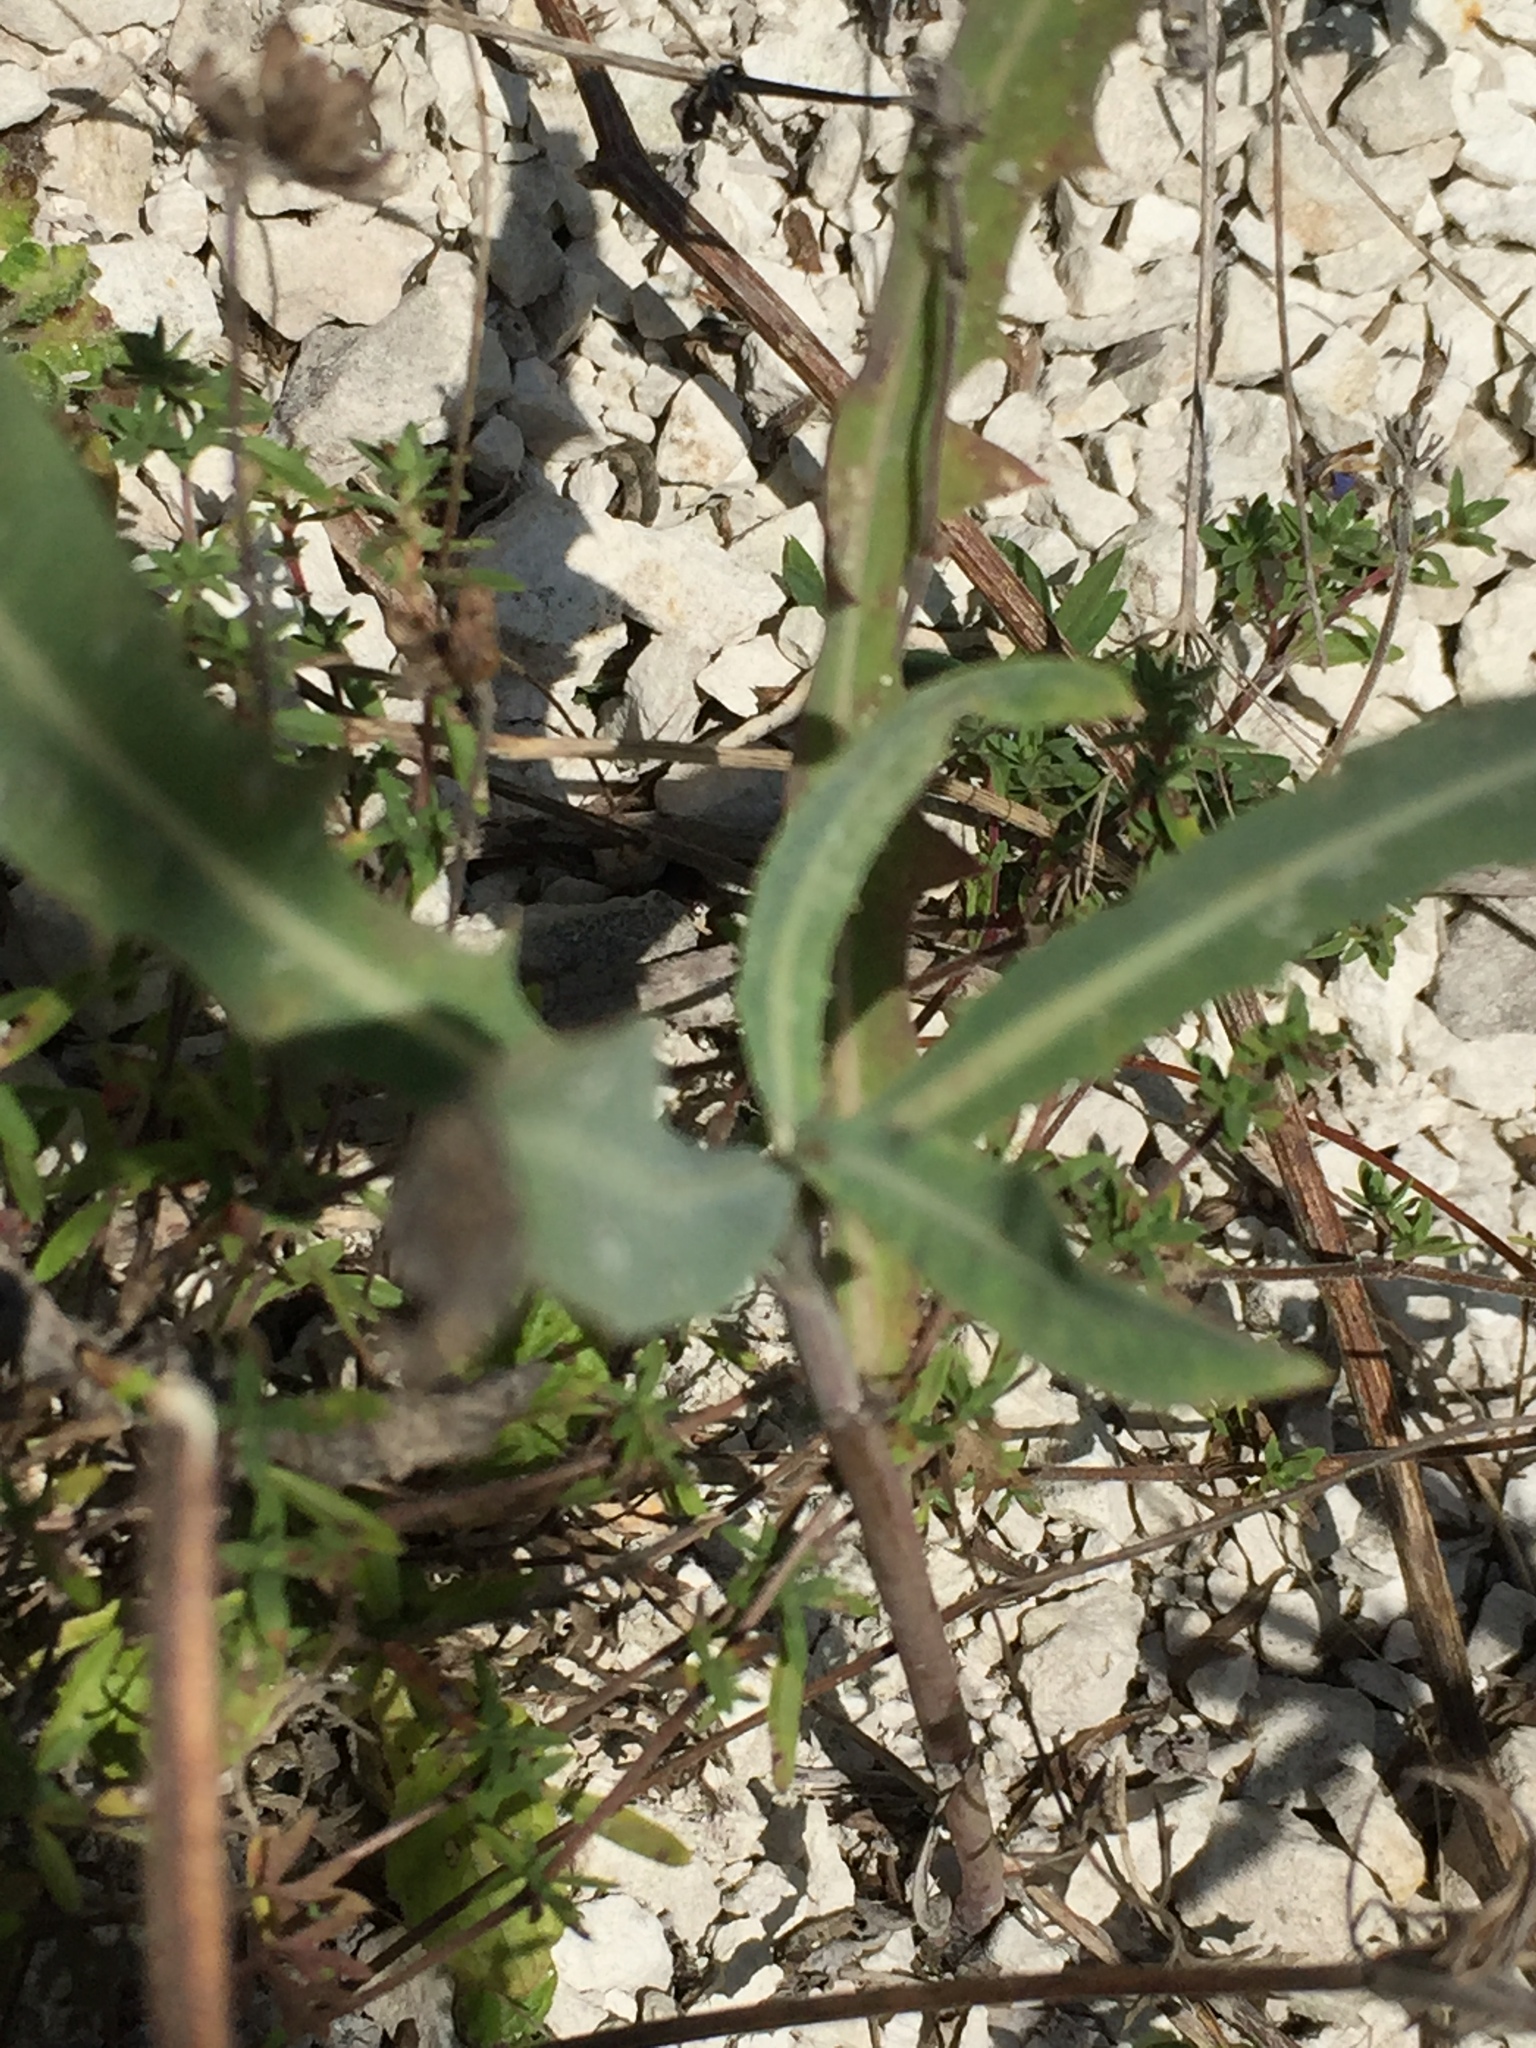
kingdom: Plantae
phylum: Tracheophyta
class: Magnoliopsida
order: Asterales
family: Asteraceae
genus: Lactuca
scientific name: Lactuca tatarica
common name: Blue lettuce
